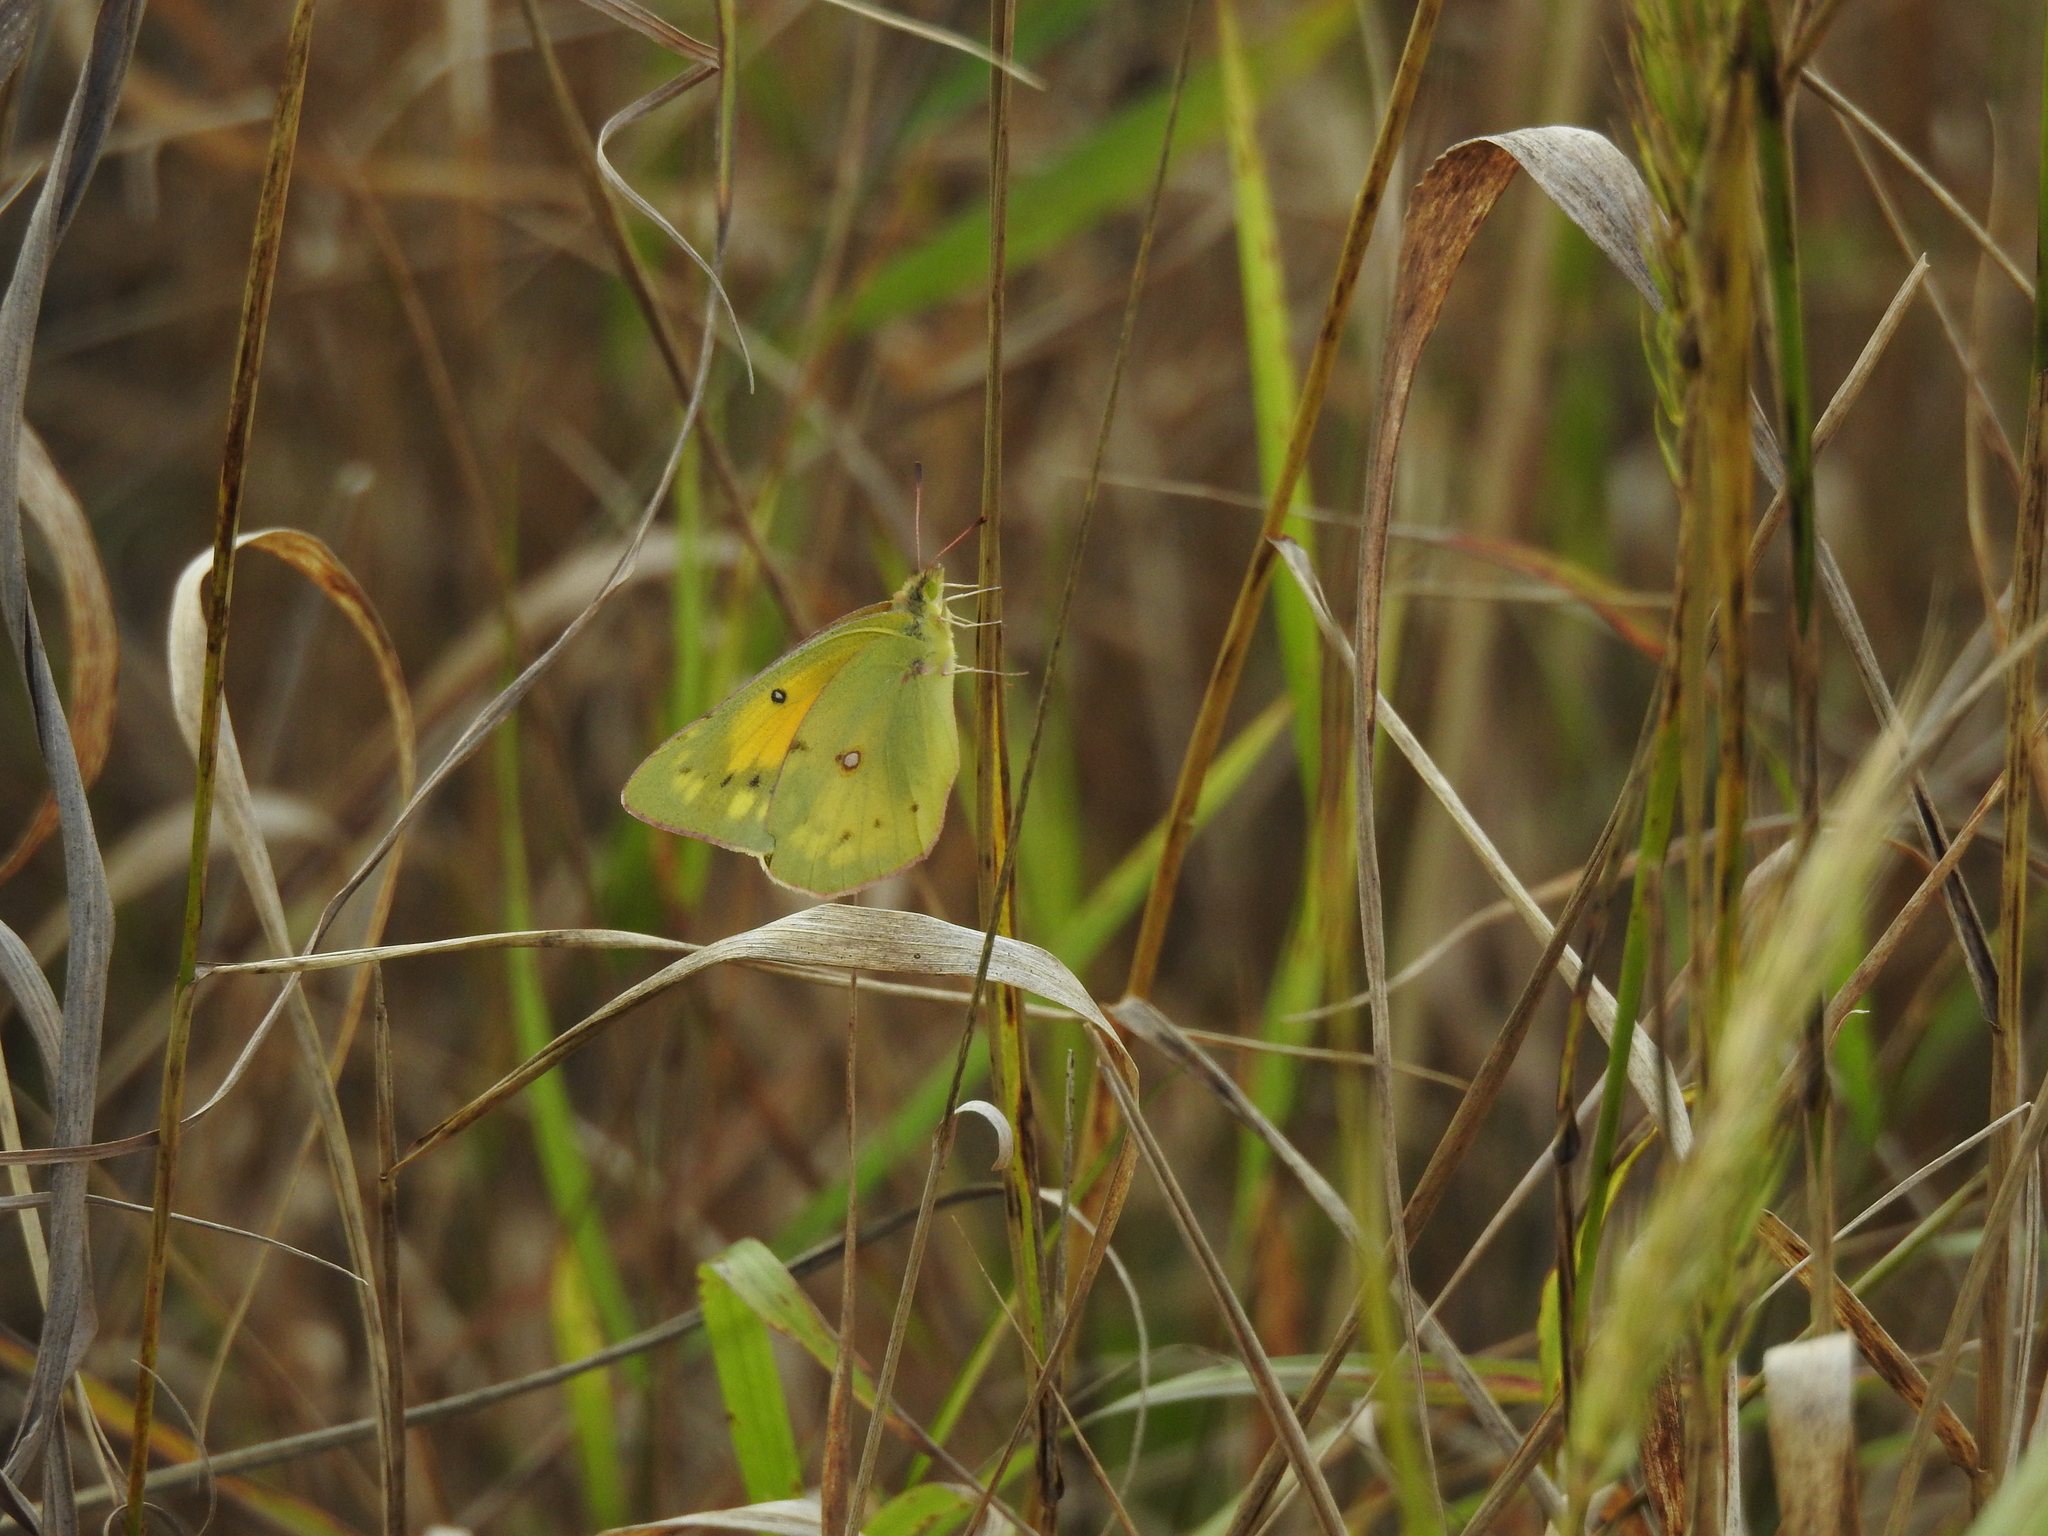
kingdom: Animalia
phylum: Arthropoda
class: Insecta
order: Lepidoptera
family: Pieridae
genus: Colias
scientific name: Colias eurytheme
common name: Alfalfa butterfly
